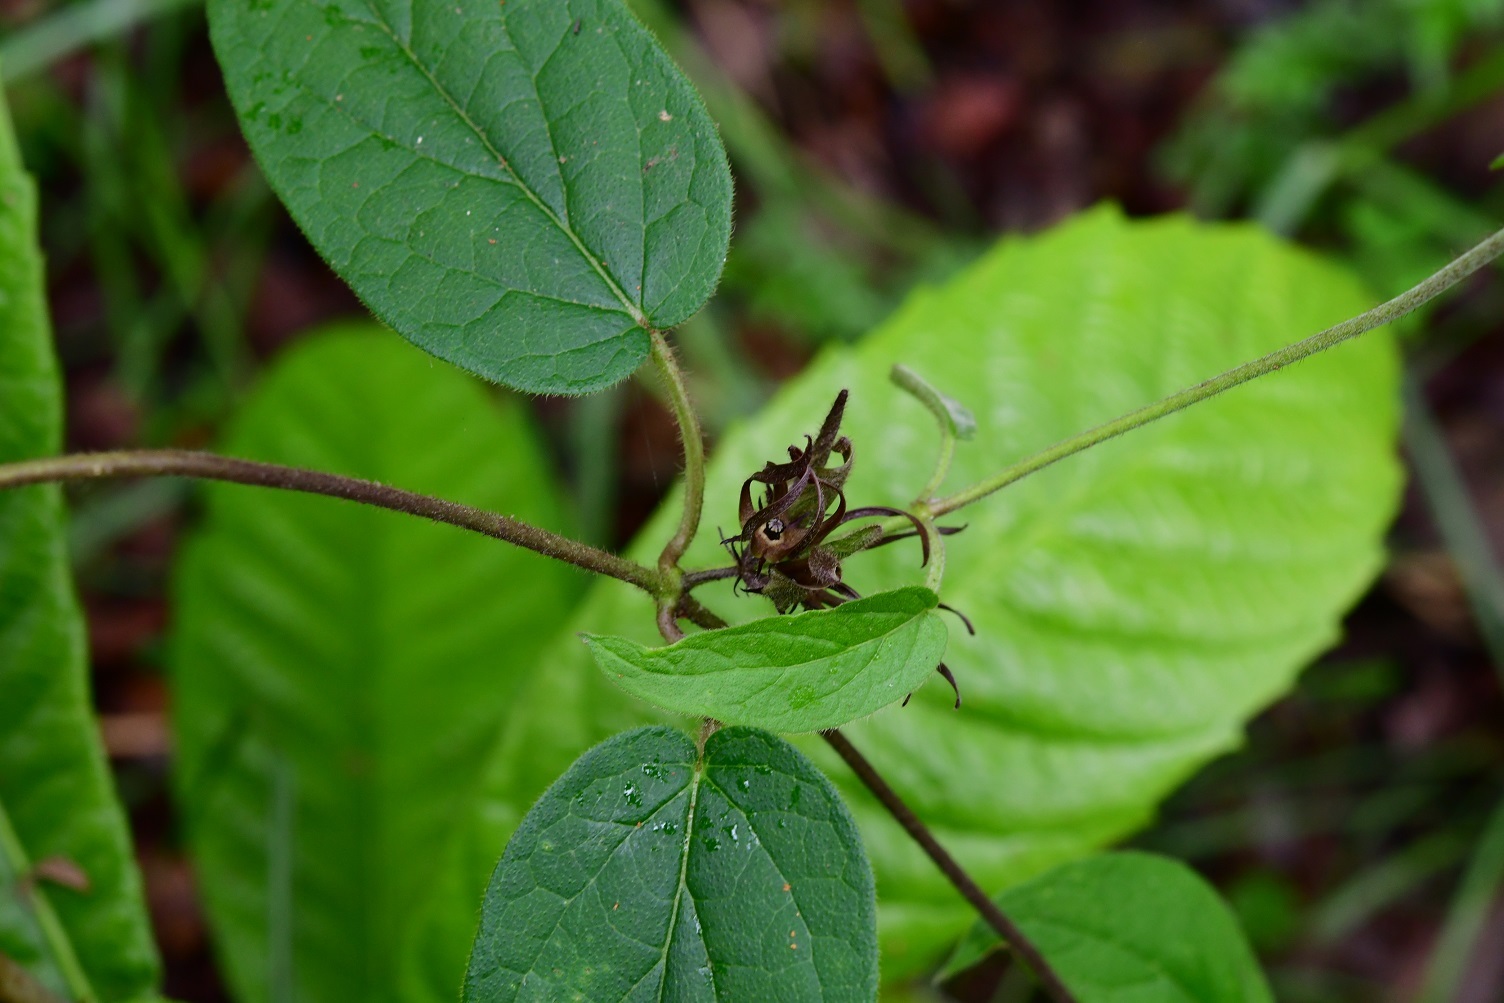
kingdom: Plantae
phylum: Tracheophyta
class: Magnoliopsida
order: Gentianales
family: Apocynaceae
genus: Matelea
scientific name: Matelea medusae
